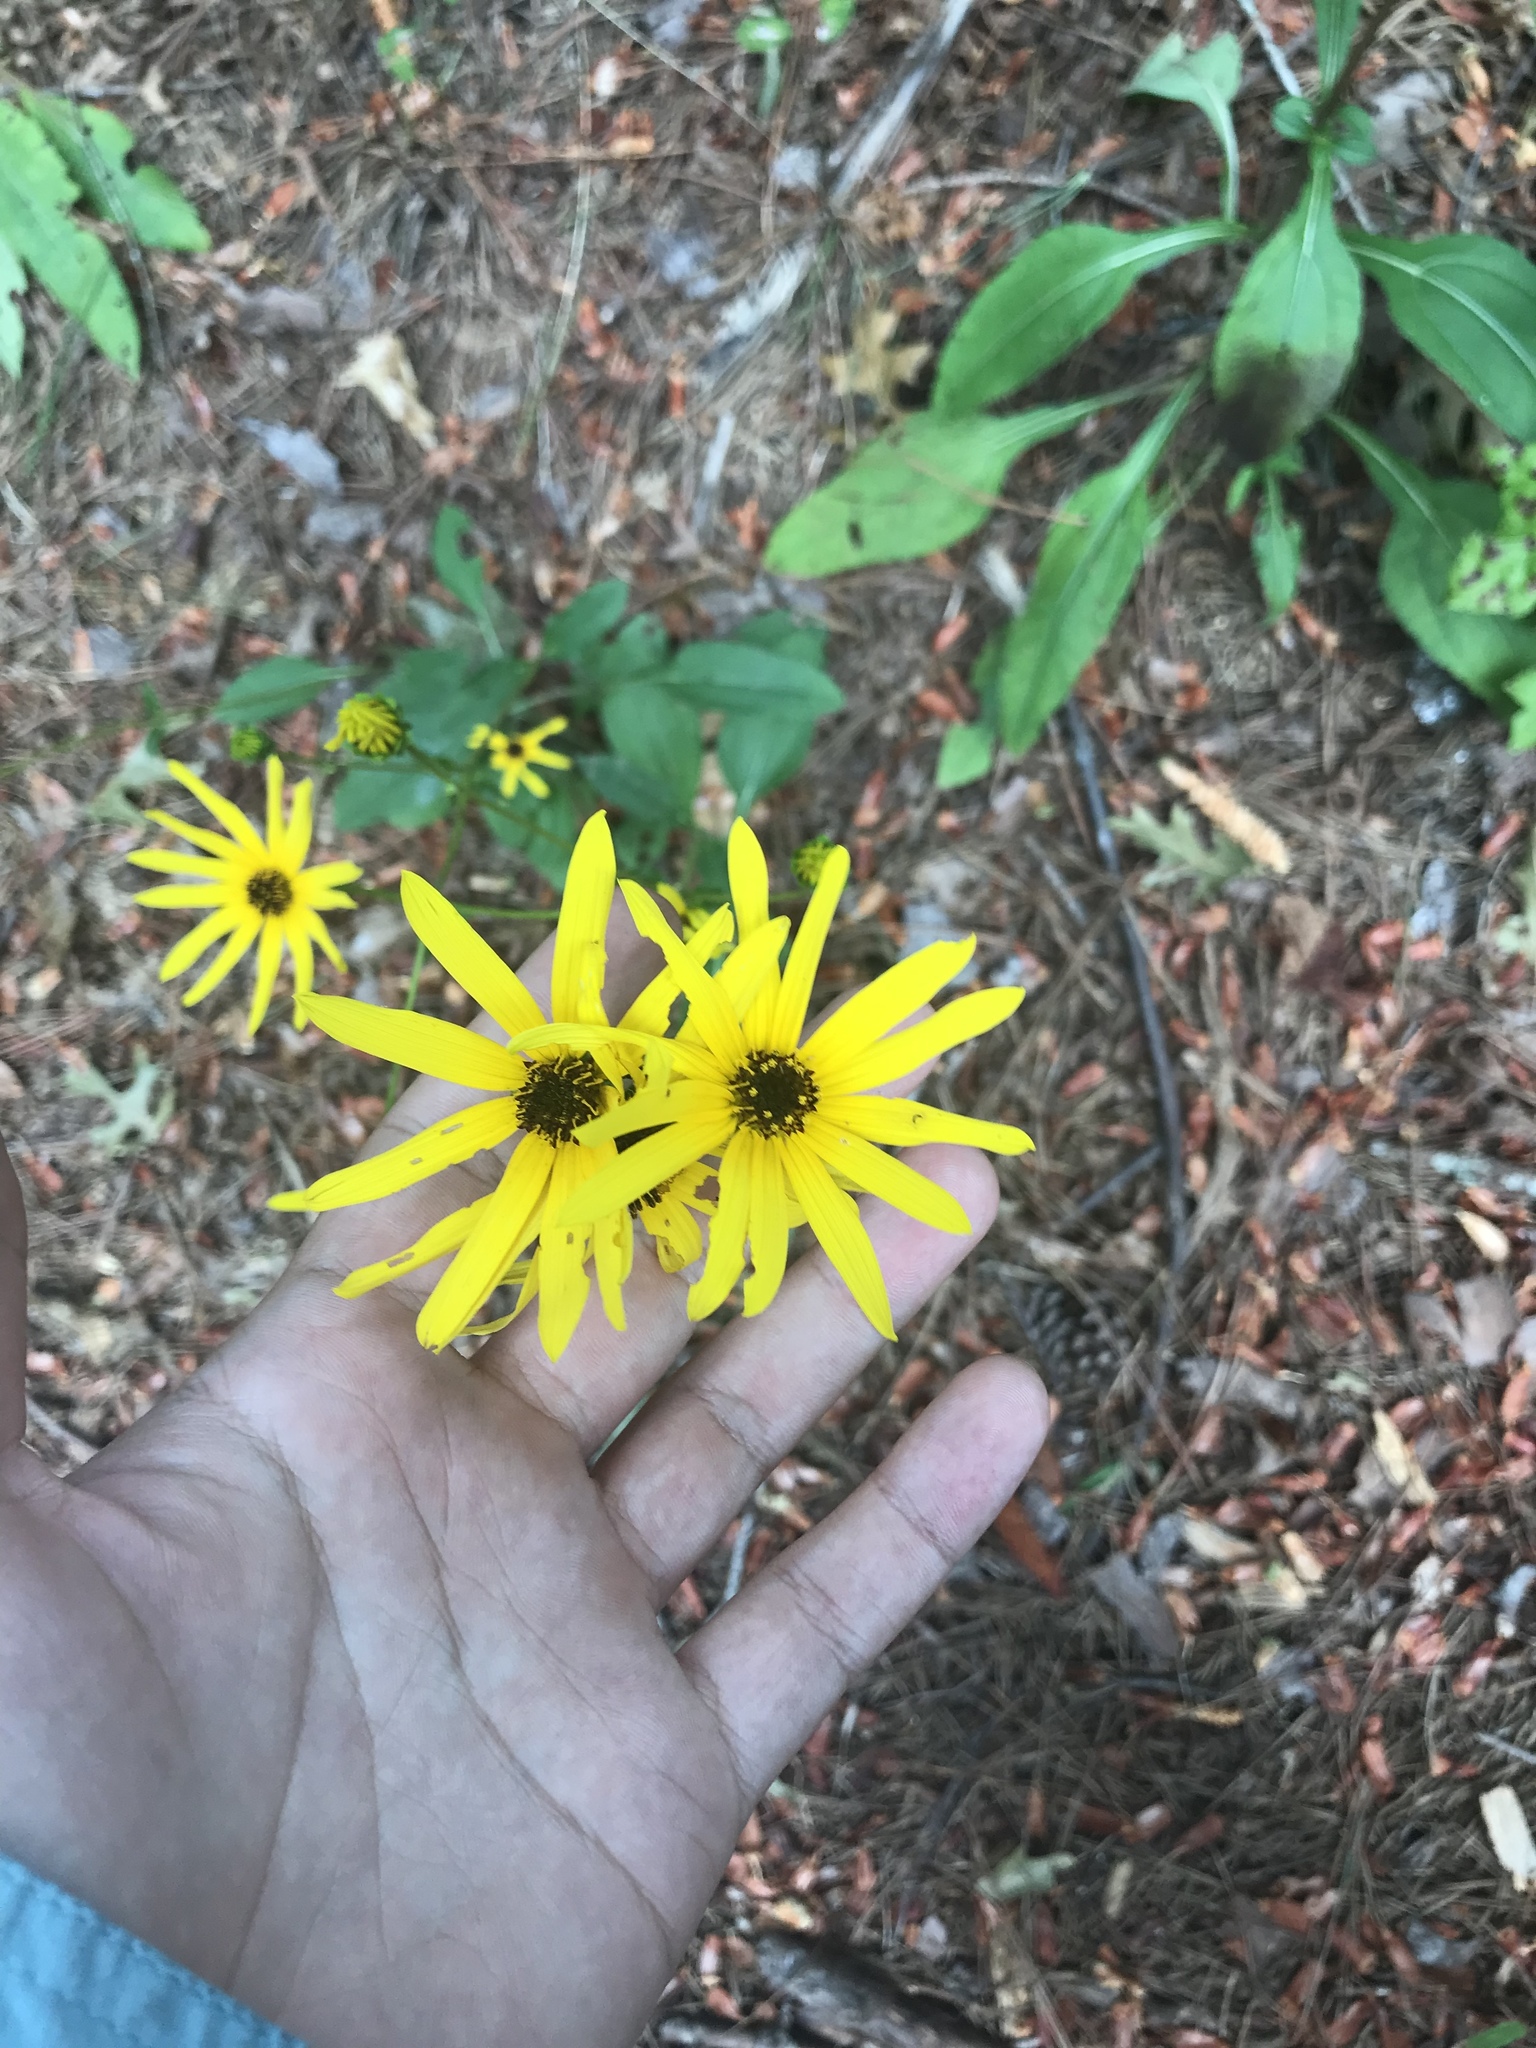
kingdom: Plantae
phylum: Tracheophyta
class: Magnoliopsida
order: Asterales
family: Asteraceae
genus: Helianthus
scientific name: Helianthus atrorubens
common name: Dark-eyed sunflower
